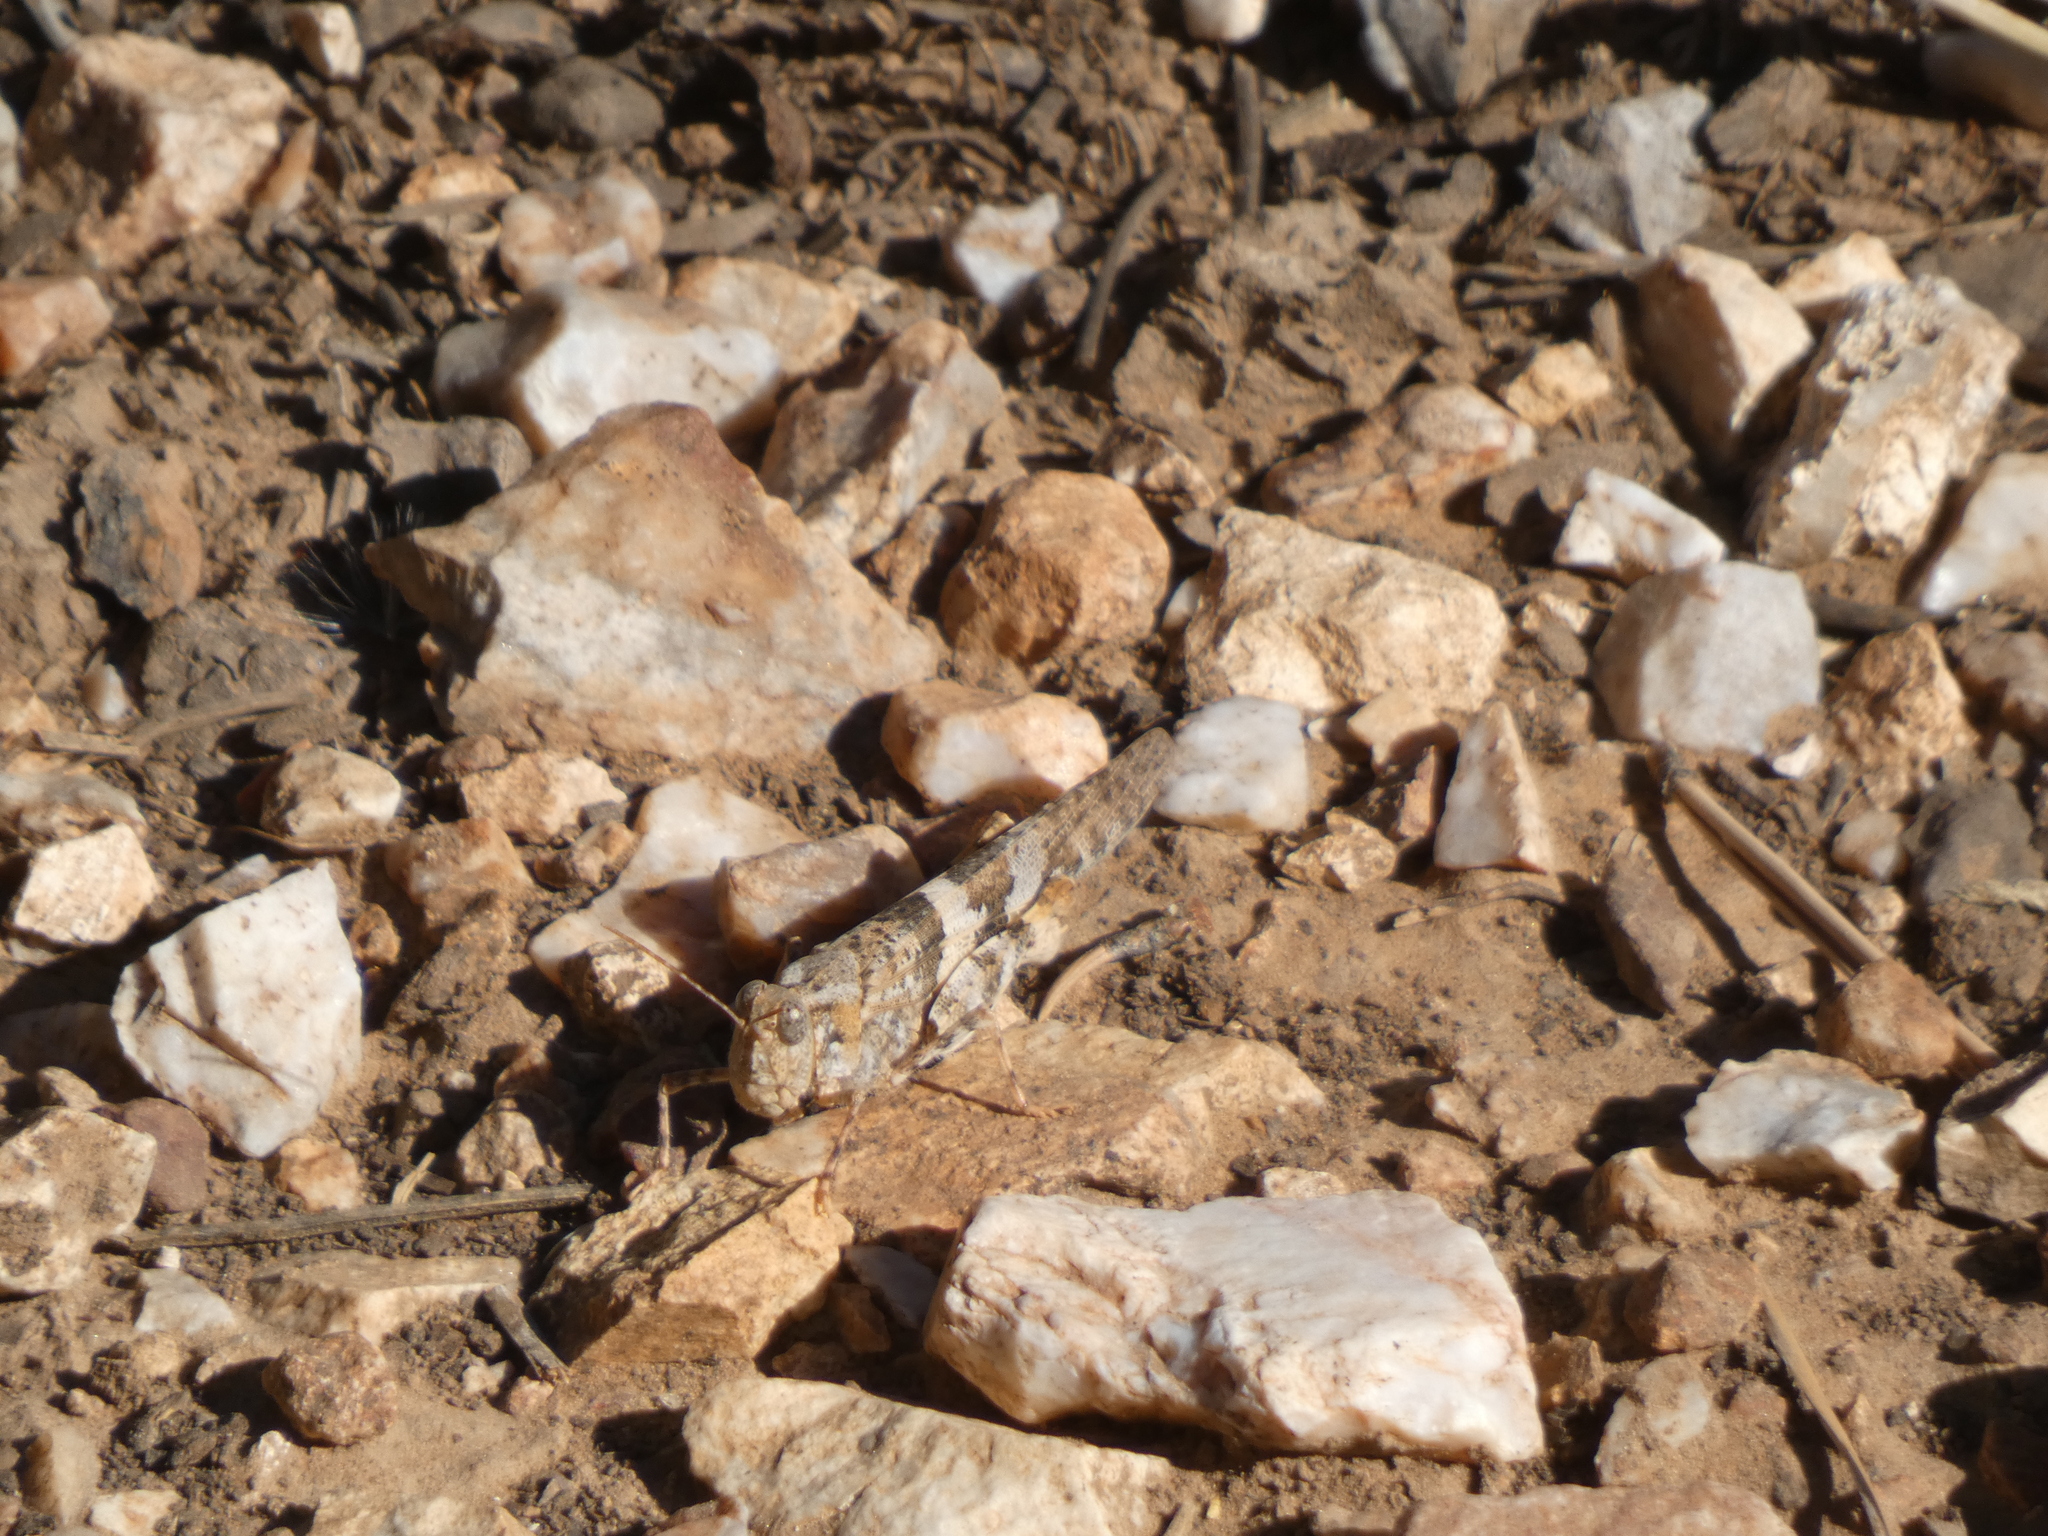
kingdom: Animalia
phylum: Arthropoda
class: Insecta
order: Orthoptera
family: Acrididae
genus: Trimerotropis
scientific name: Trimerotropis pallidipennis
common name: Pallid-winged grasshopper
